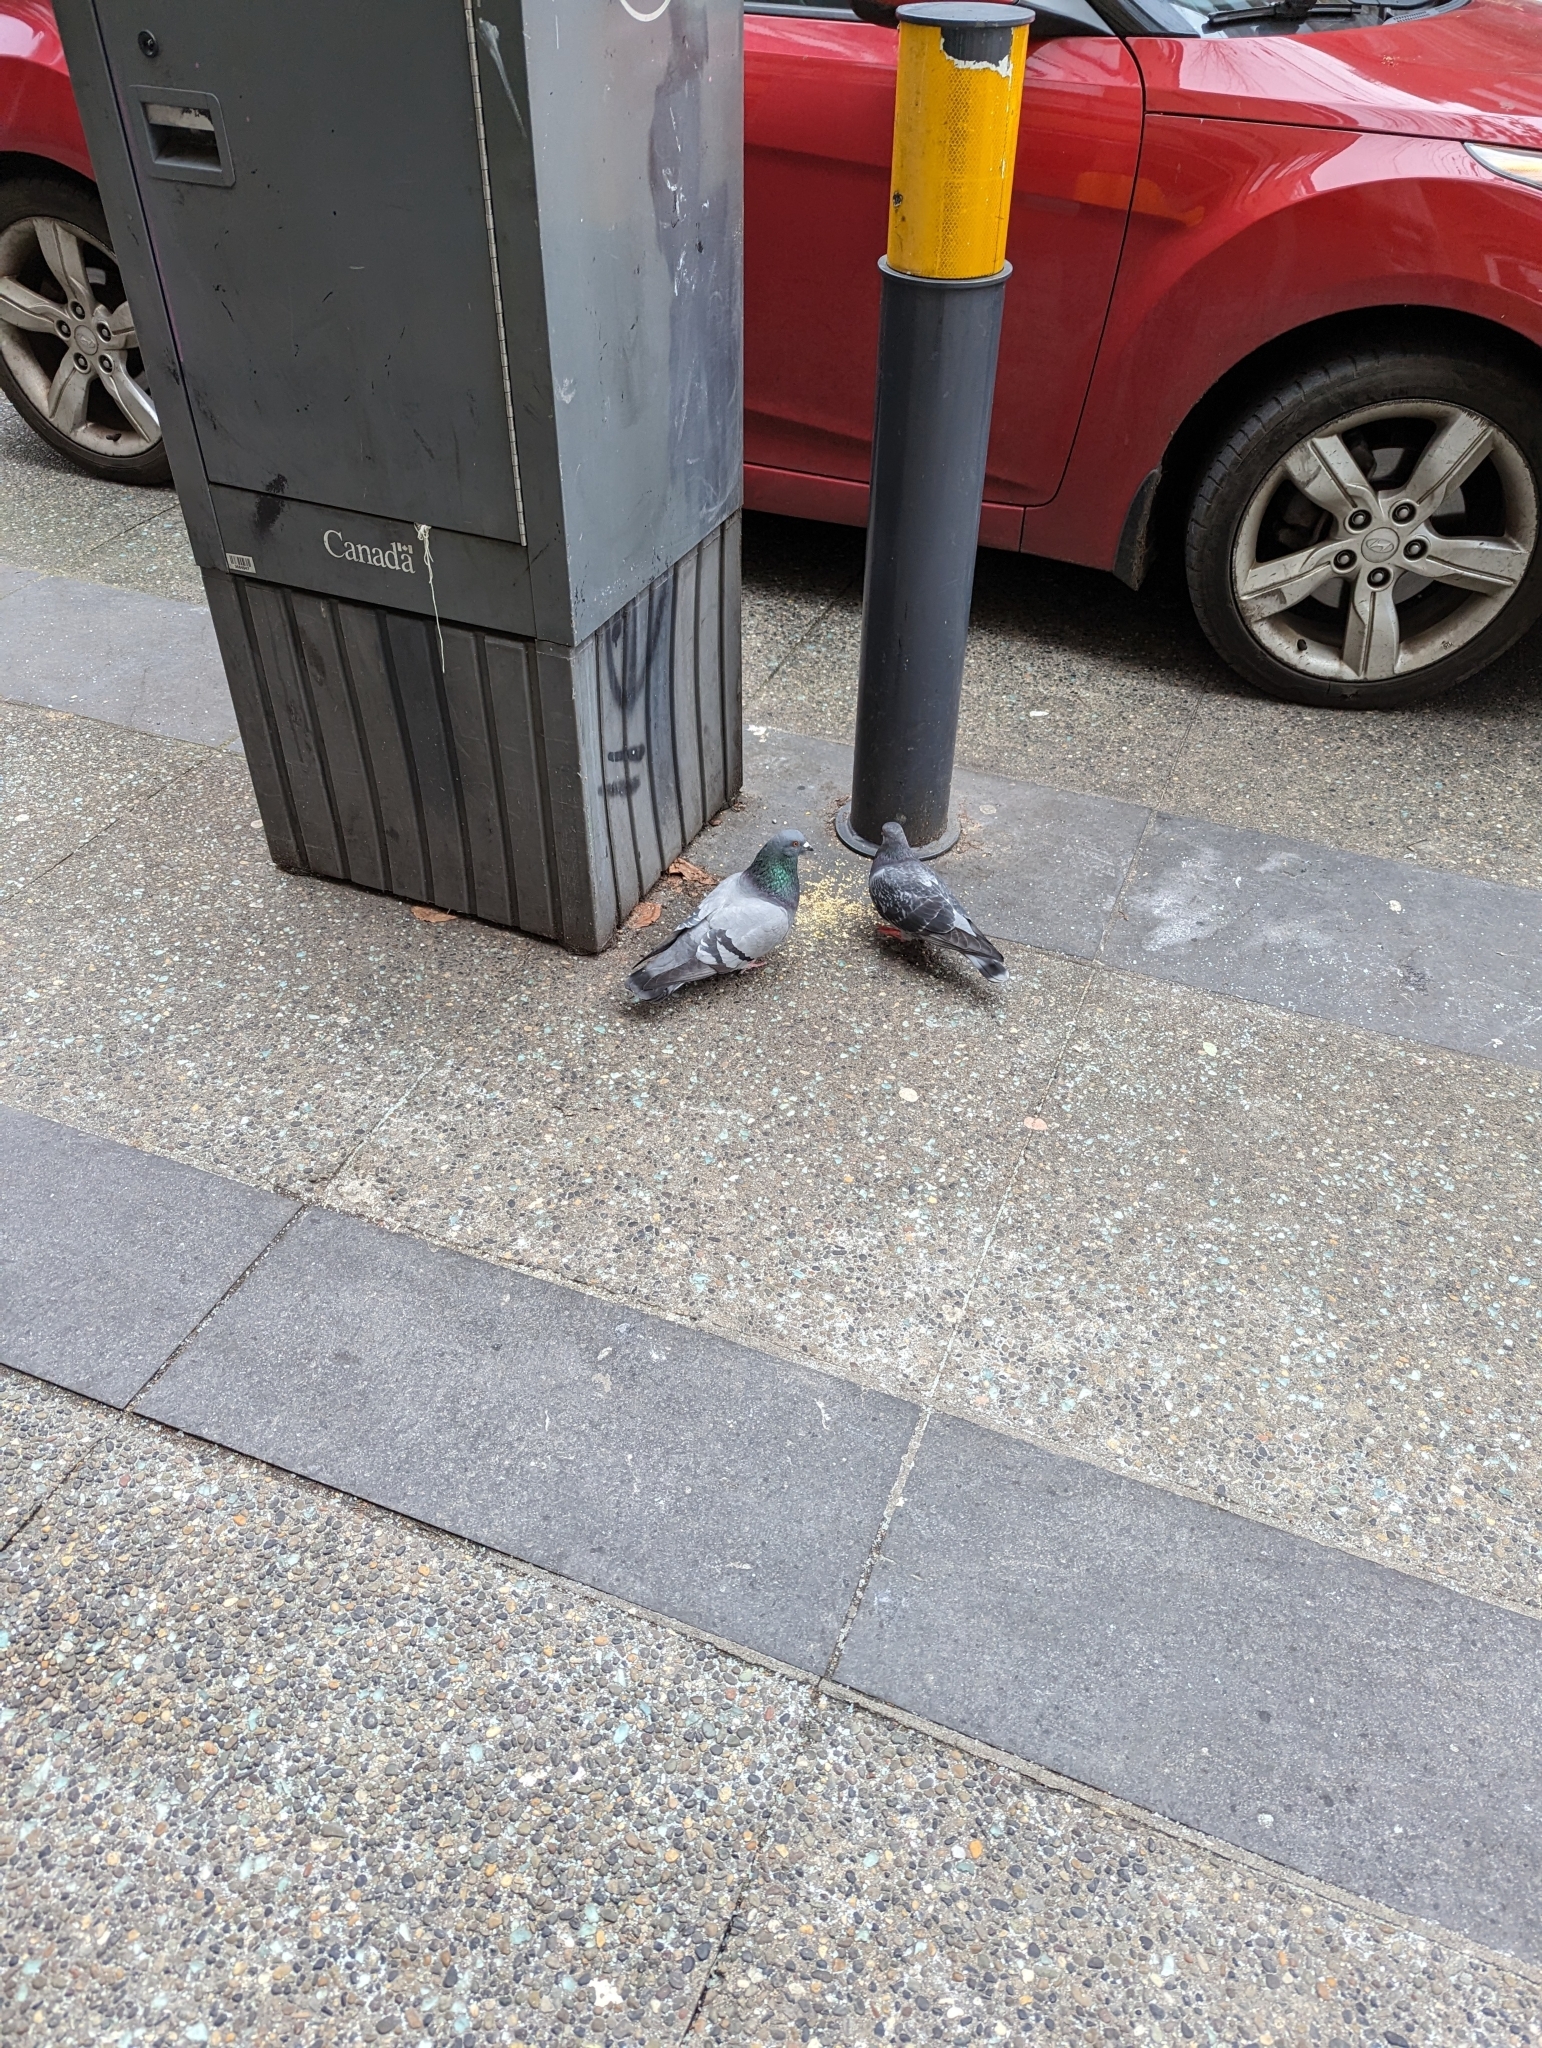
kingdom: Animalia
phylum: Chordata
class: Aves
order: Columbiformes
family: Columbidae
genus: Columba
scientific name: Columba livia
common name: Rock pigeon
